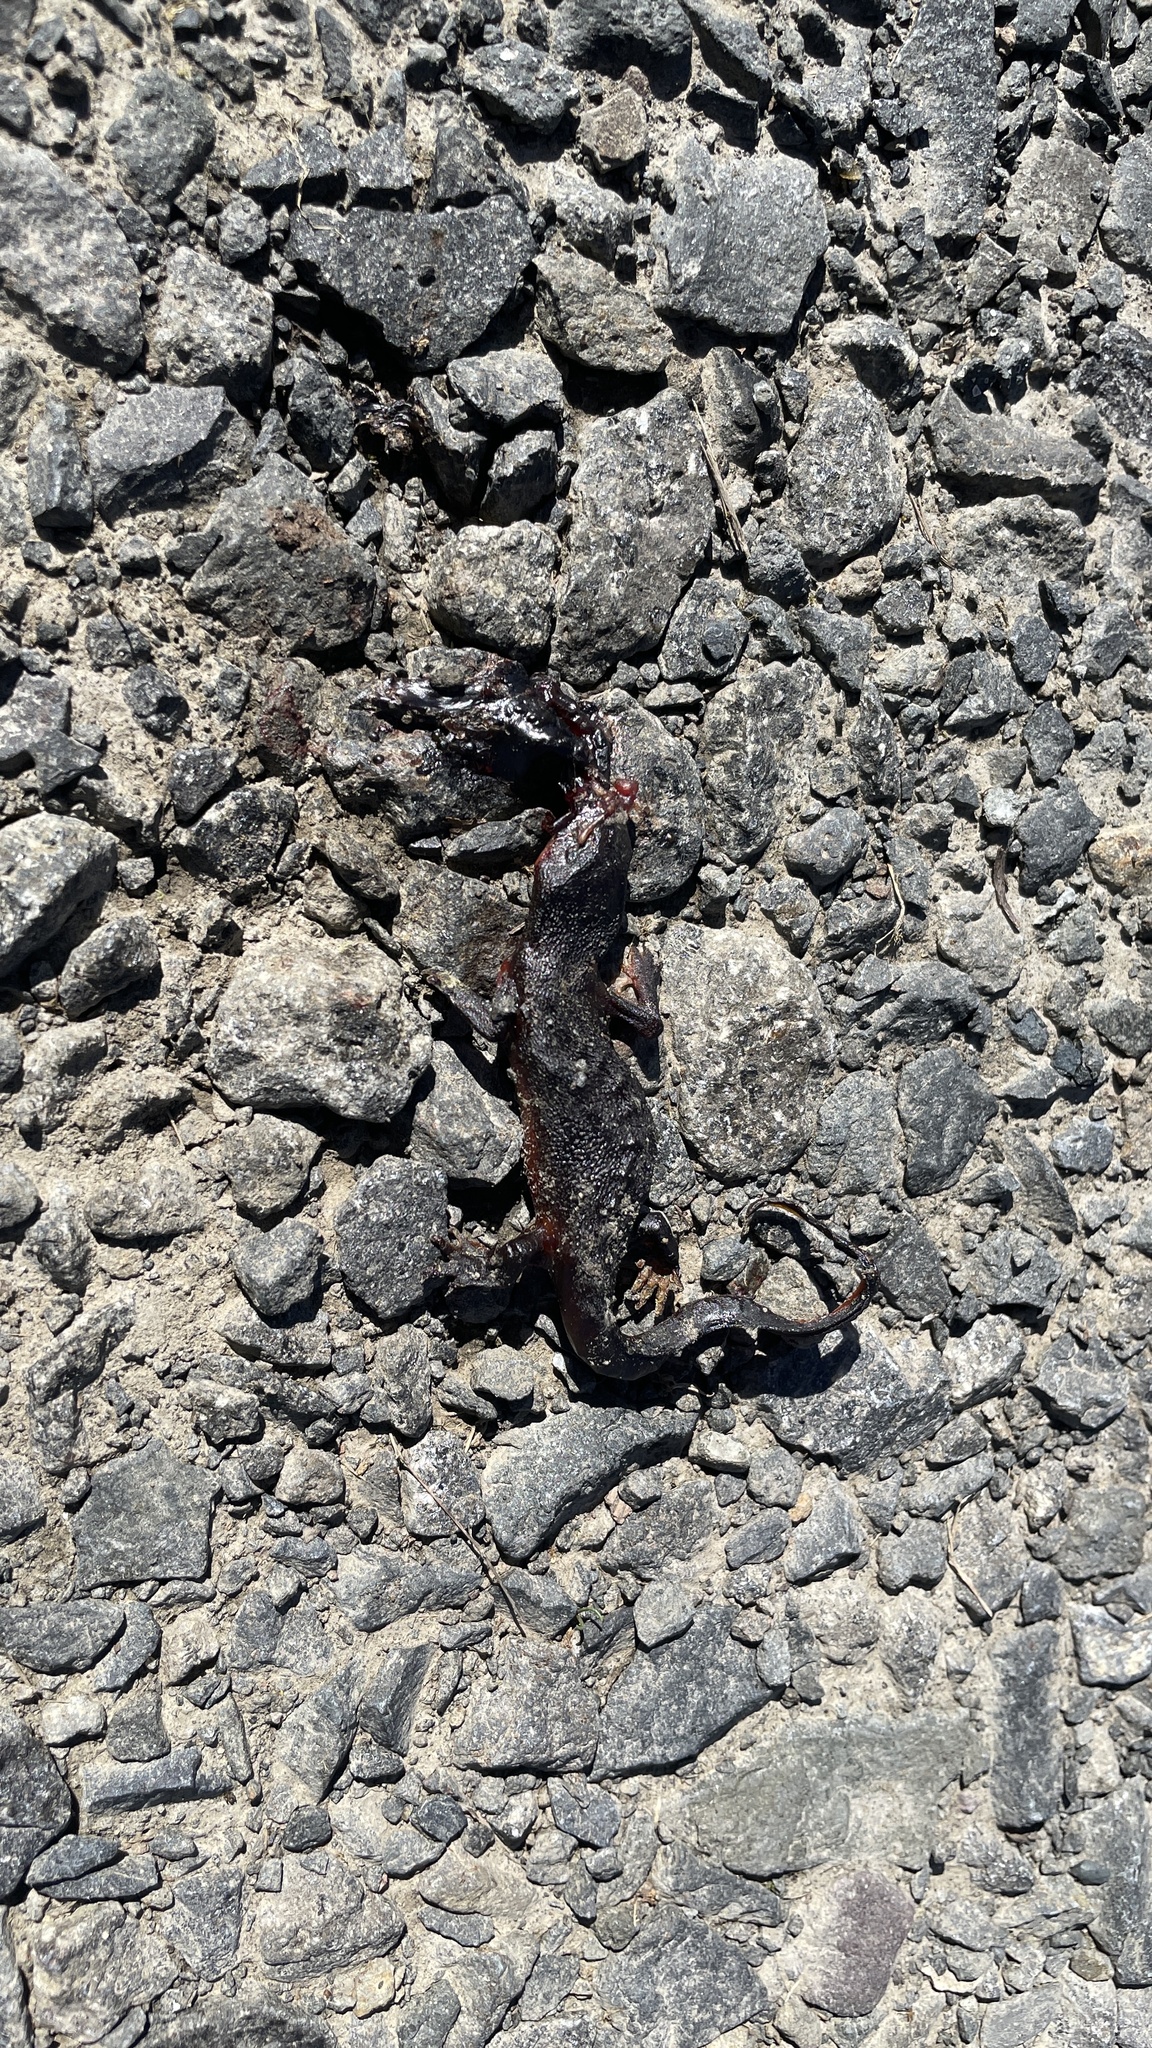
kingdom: Animalia
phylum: Chordata
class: Amphibia
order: Caudata
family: Salamandridae
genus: Taricha
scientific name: Taricha granulosa
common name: Roughskin newt
